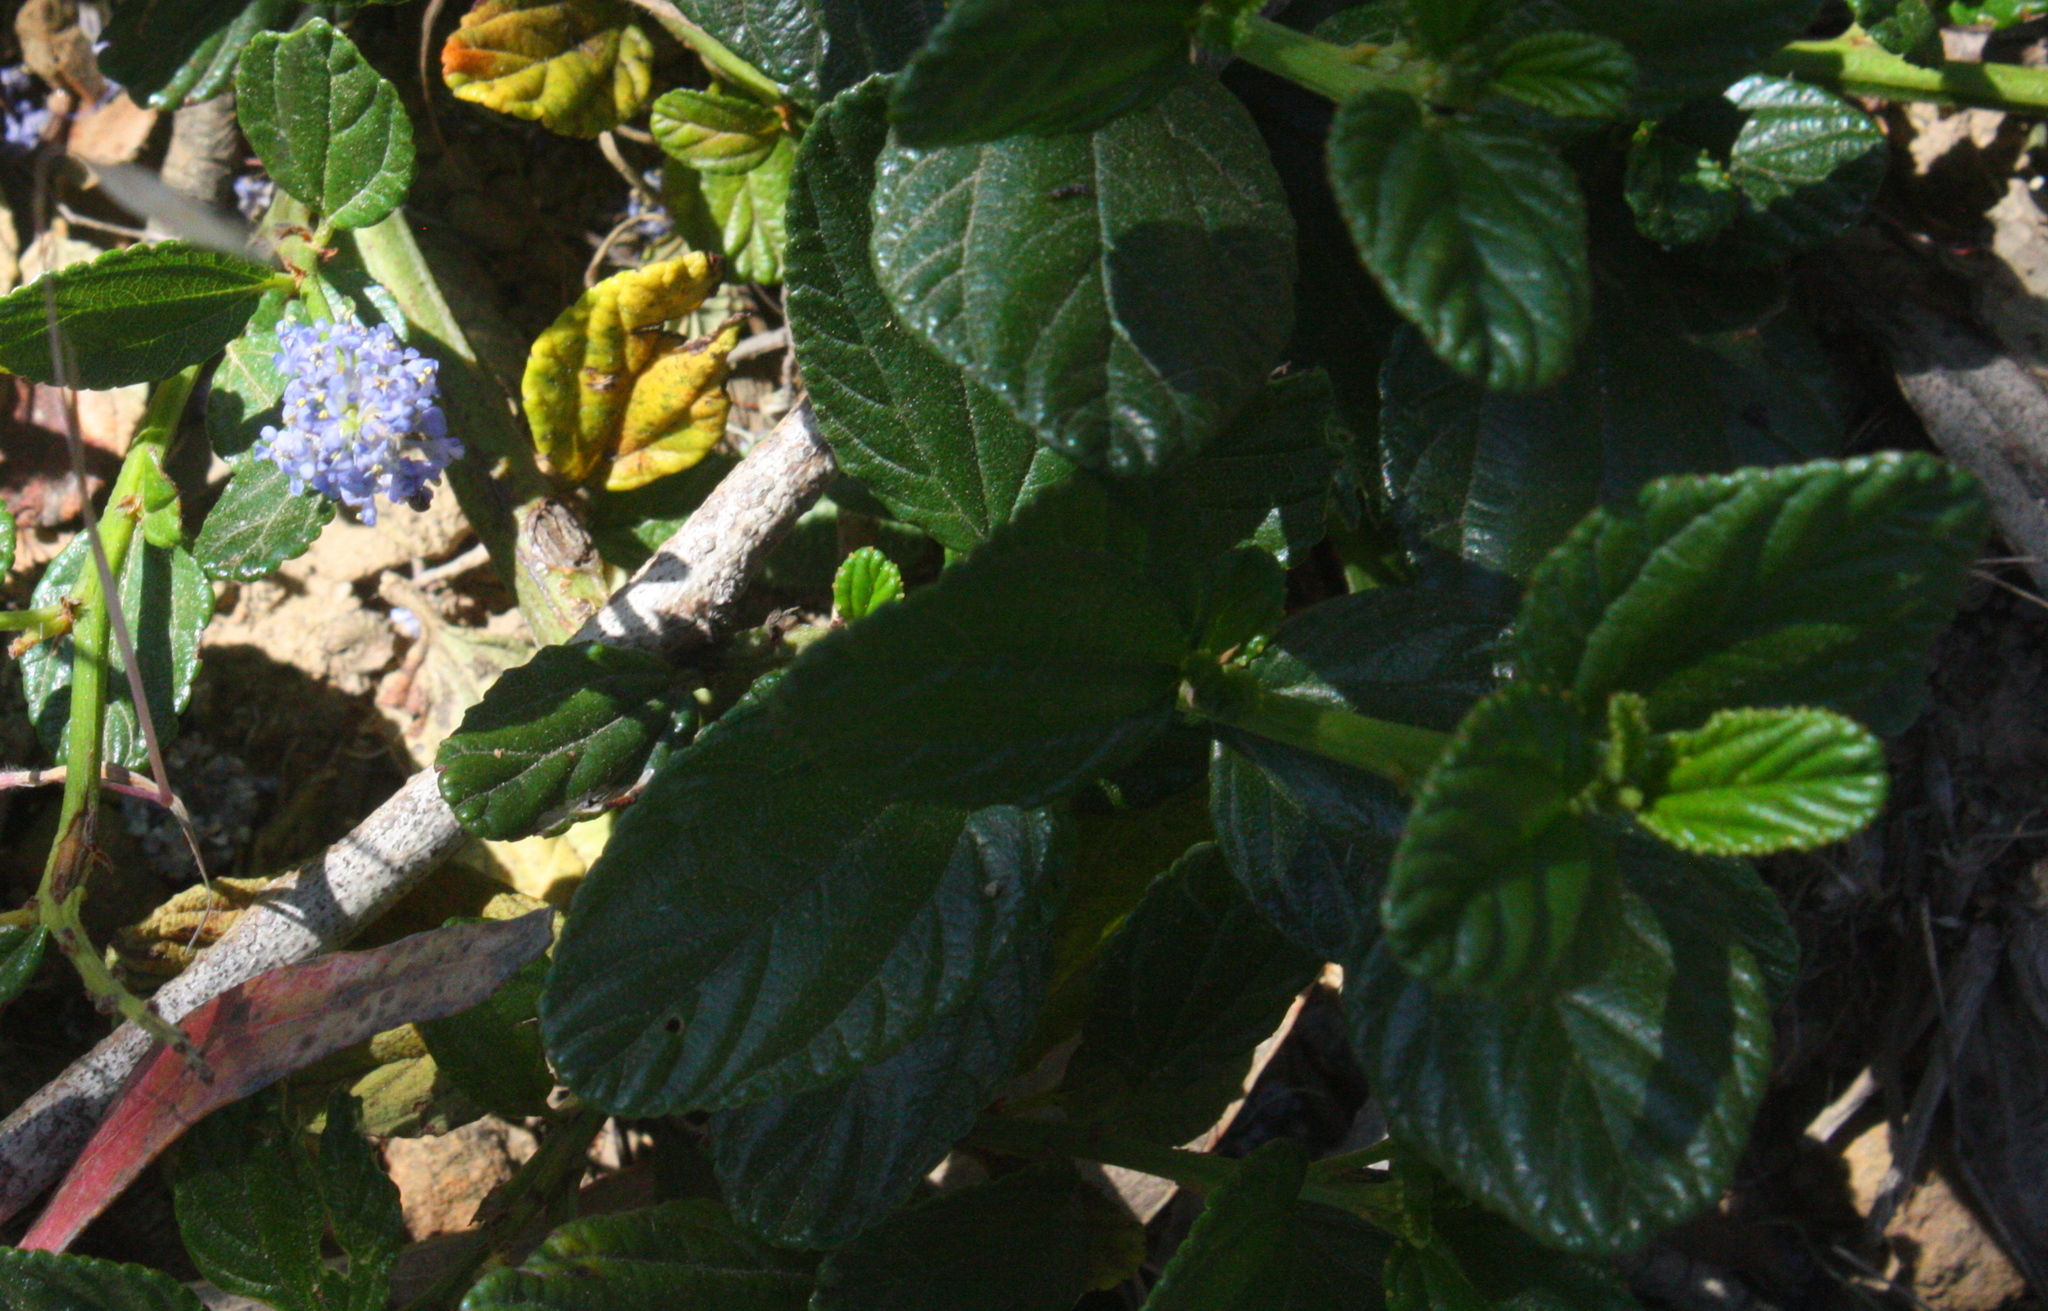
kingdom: Plantae
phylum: Tracheophyta
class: Magnoliopsida
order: Rosales
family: Rhamnaceae
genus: Ceanothus
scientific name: Ceanothus thyrsiflorus
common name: California-lilac
